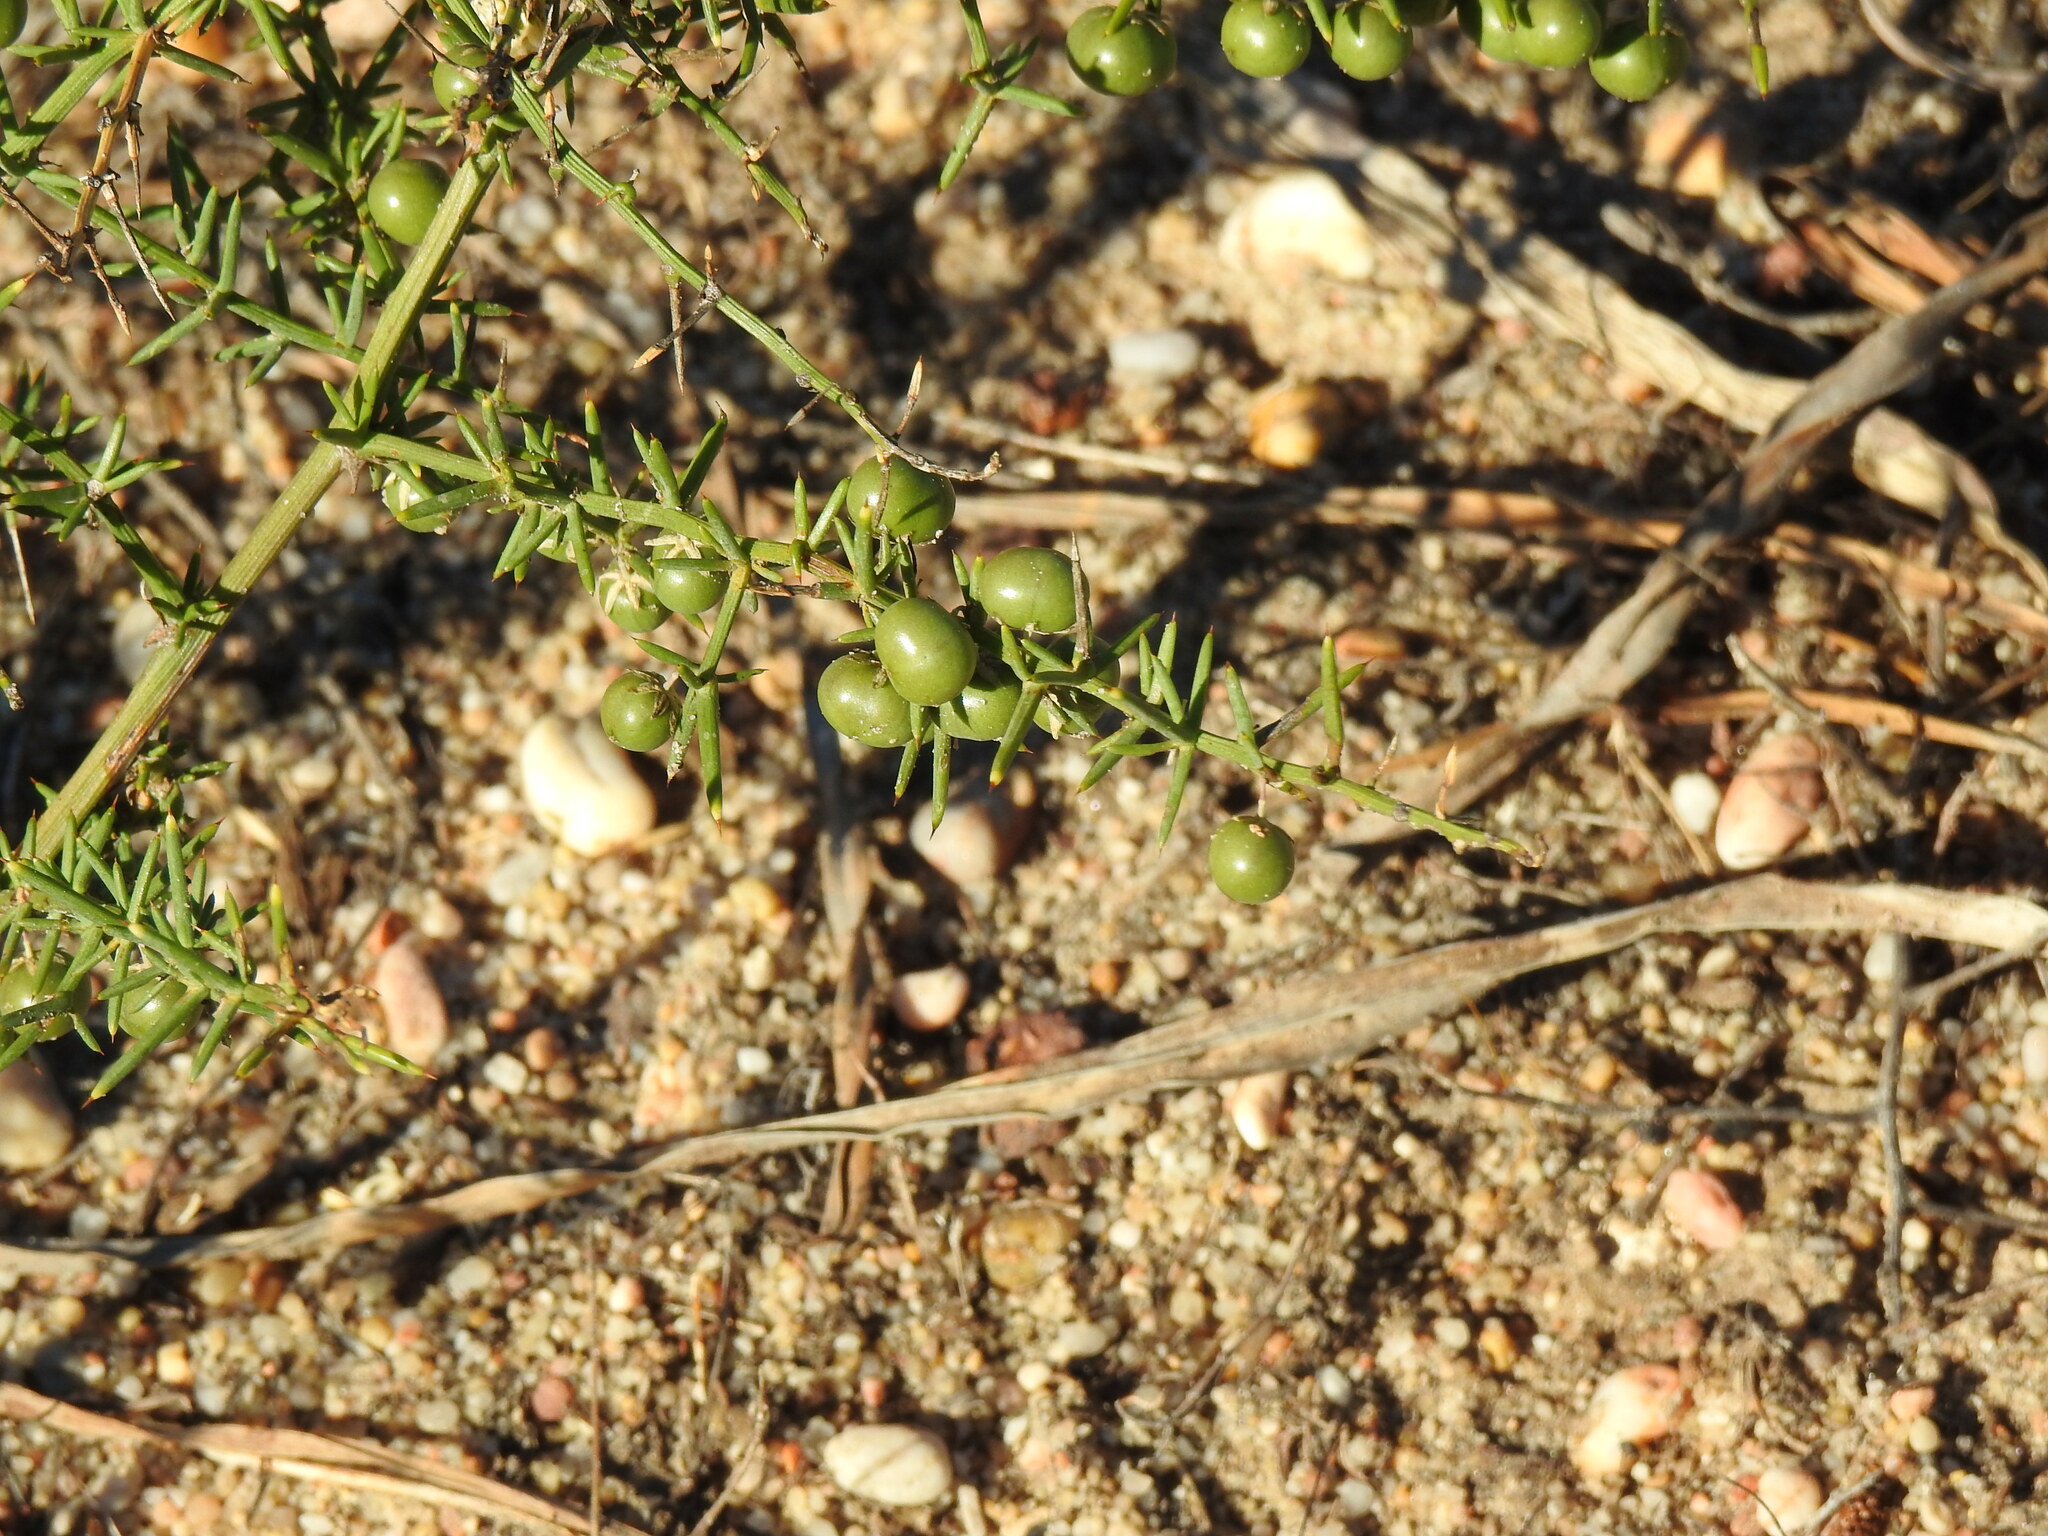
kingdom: Plantae
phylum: Tracheophyta
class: Liliopsida
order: Asparagales
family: Asparagaceae
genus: Asparagus
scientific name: Asparagus aphyllus
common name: Mediterranean asparagus
